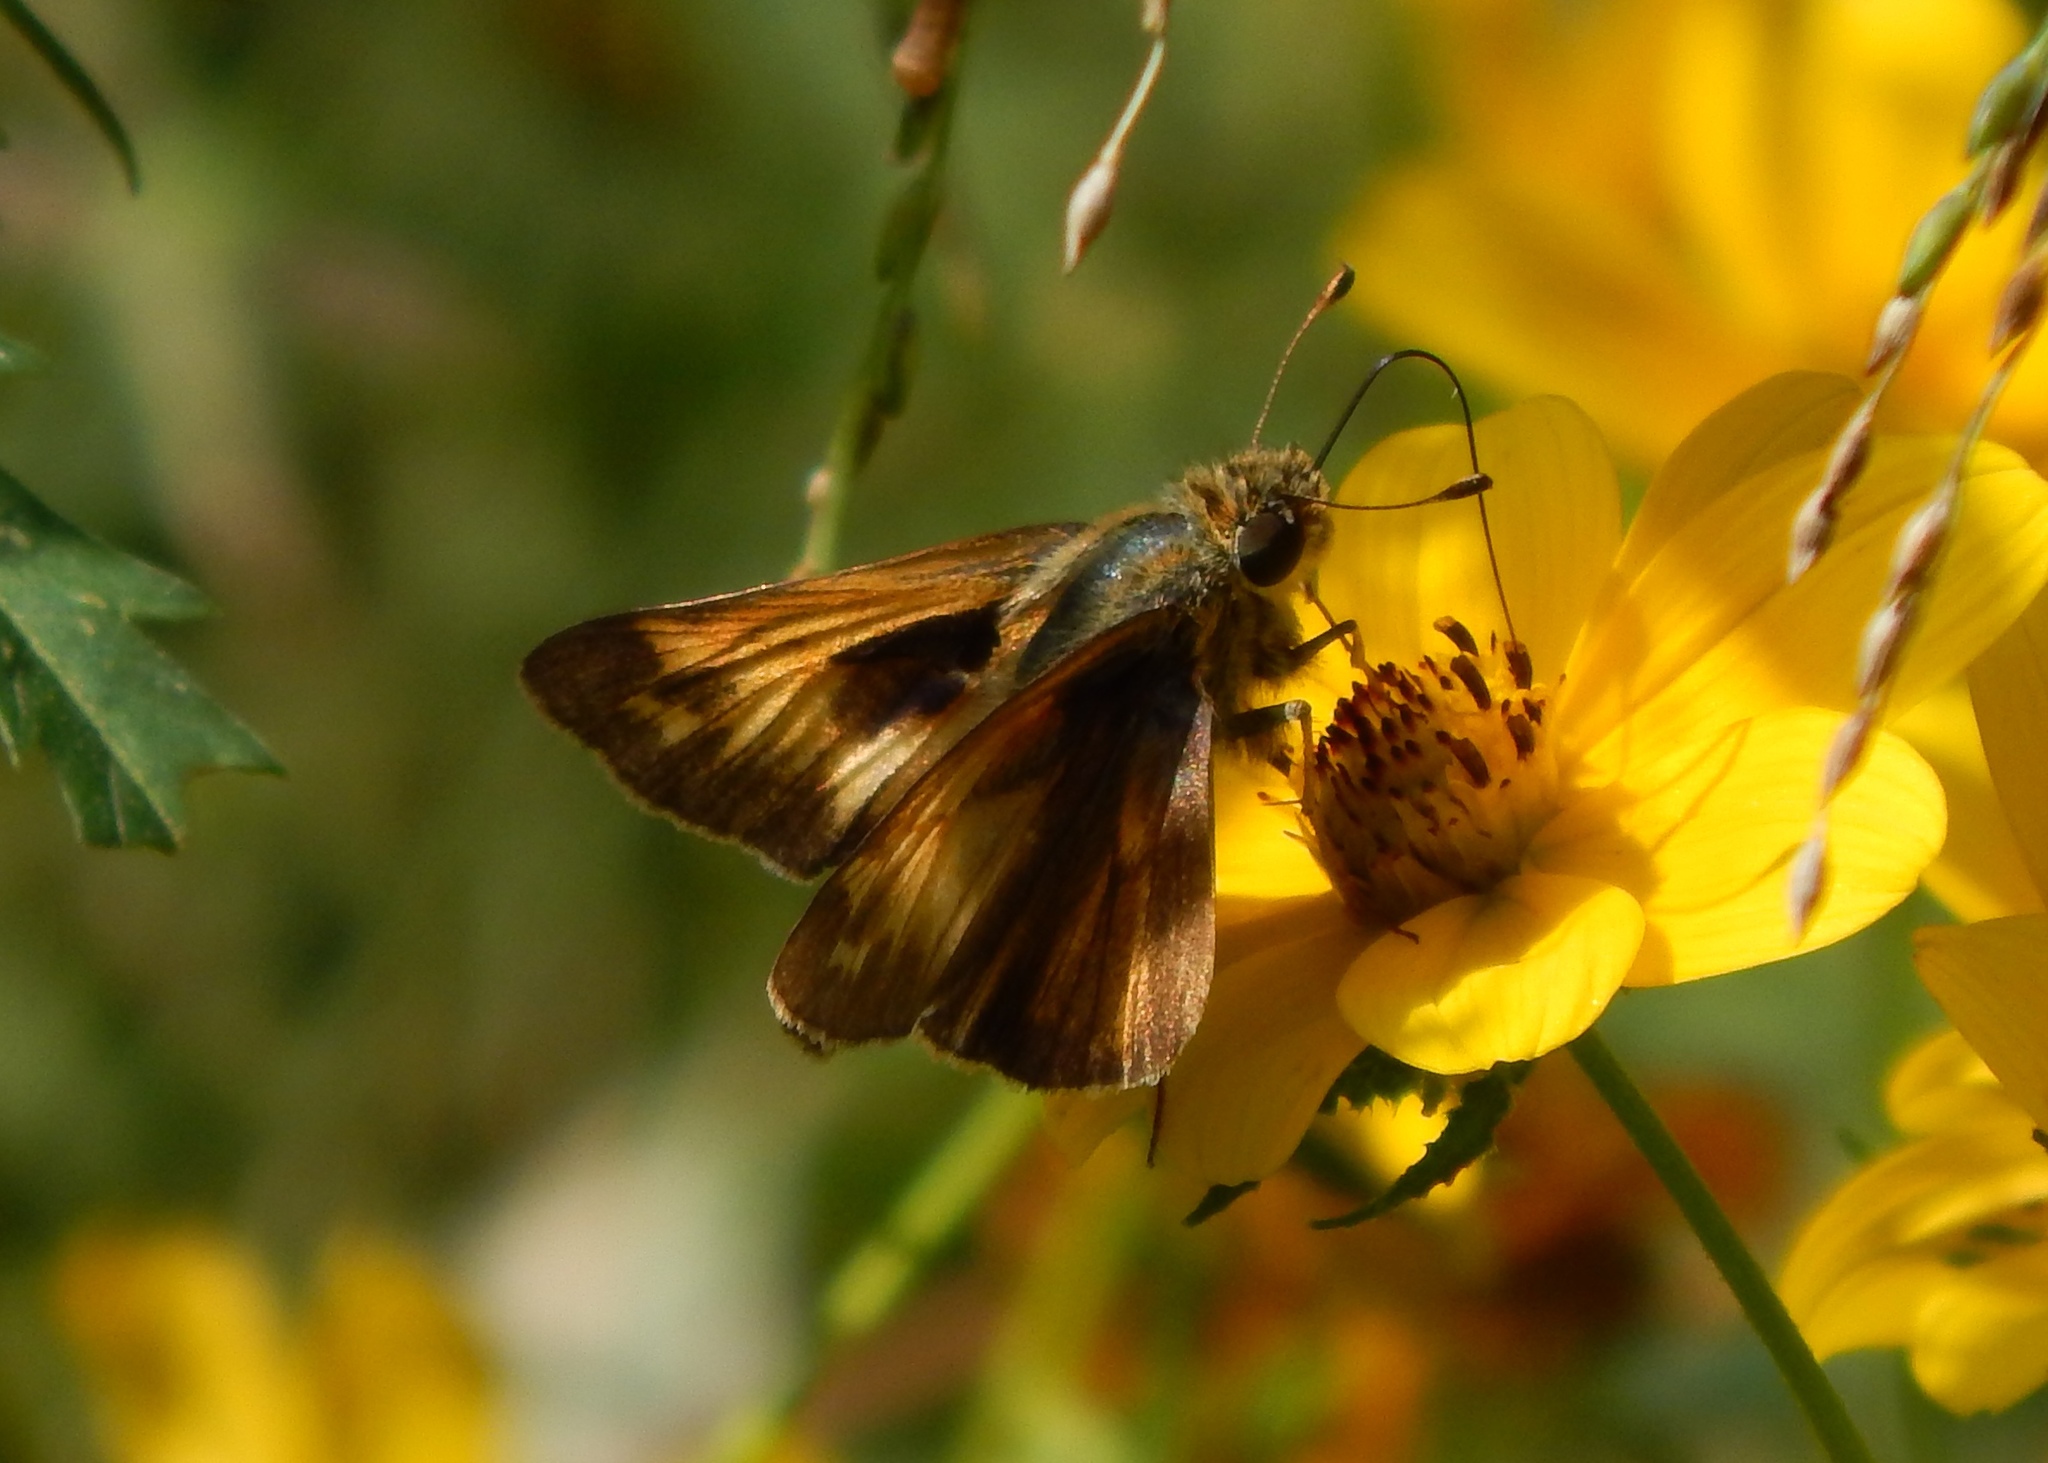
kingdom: Animalia
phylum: Arthropoda
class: Insecta
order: Lepidoptera
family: Hesperiidae
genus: Atalopedes
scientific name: Atalopedes
